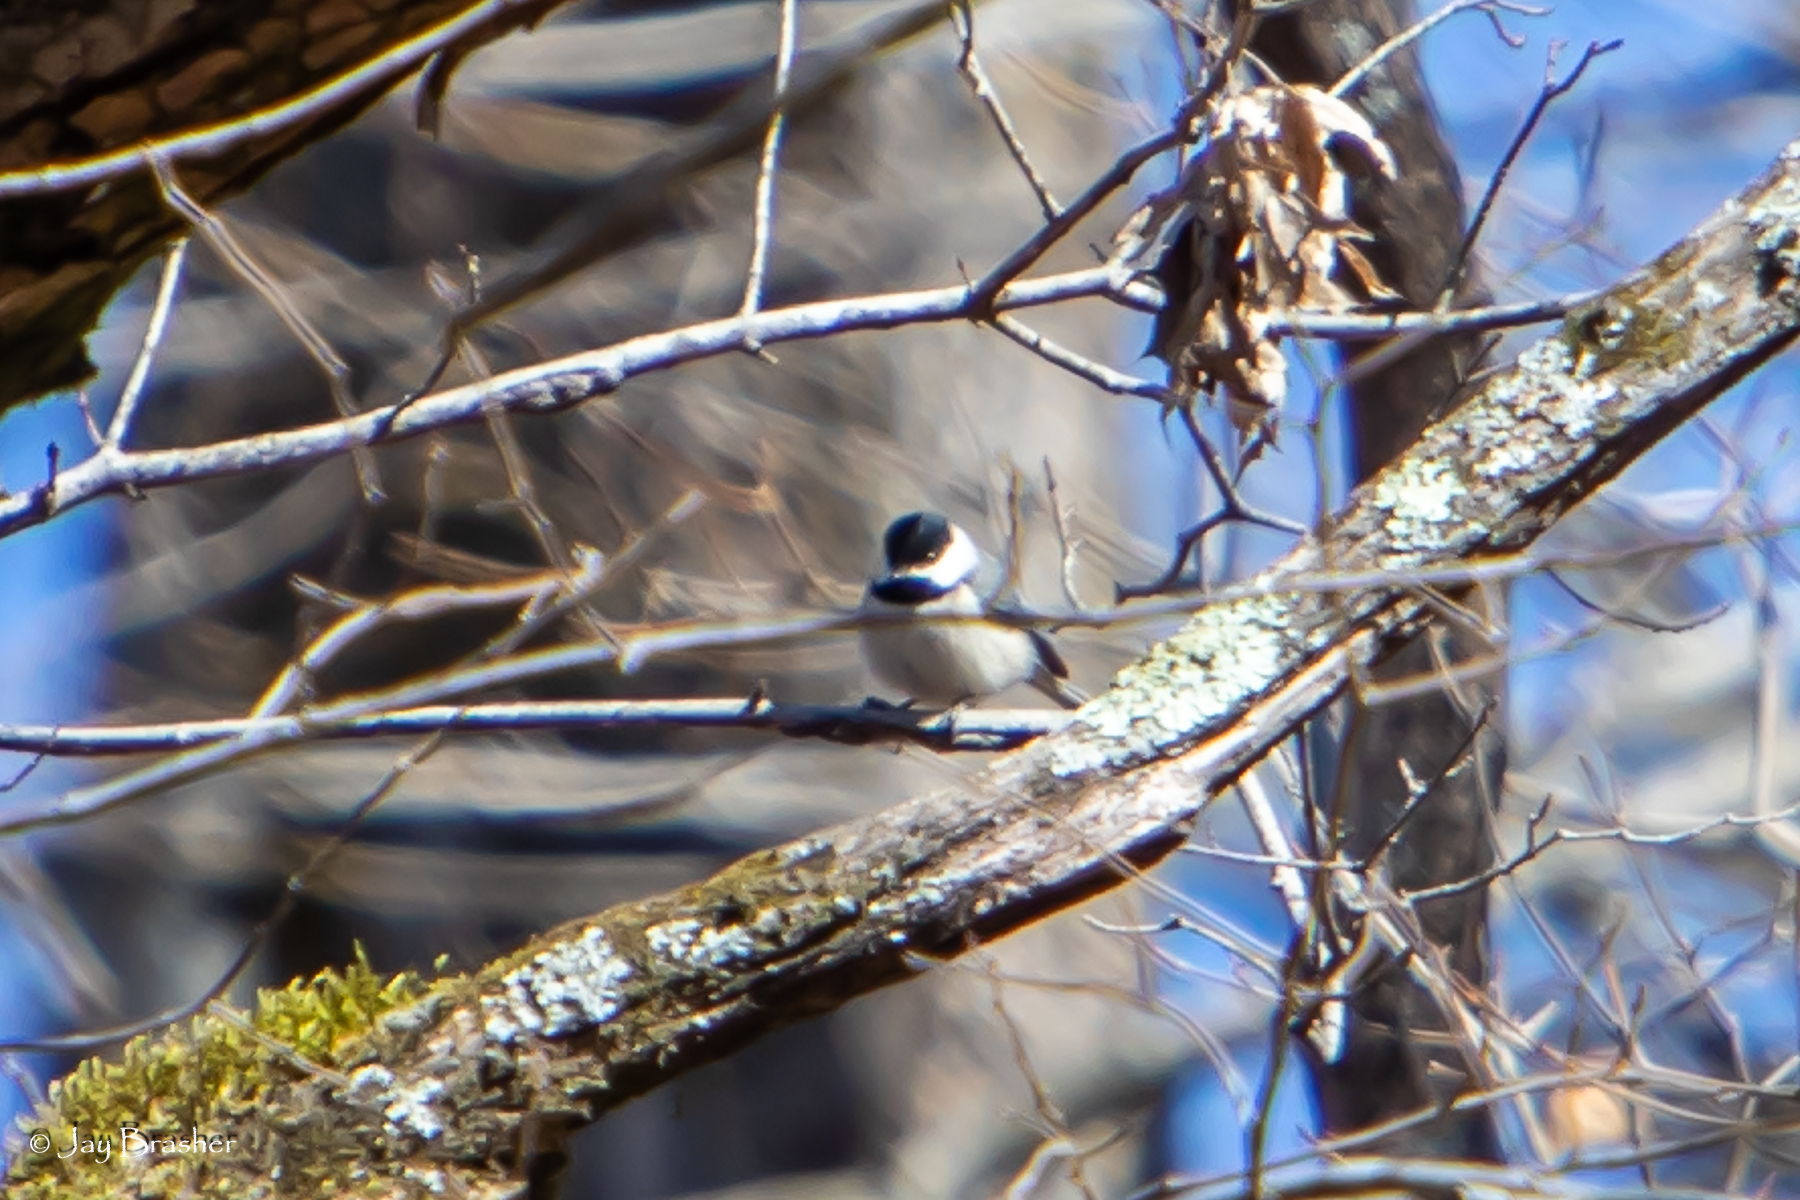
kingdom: Animalia
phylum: Chordata
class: Aves
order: Passeriformes
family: Paridae
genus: Poecile
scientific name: Poecile carolinensis
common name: Carolina chickadee
